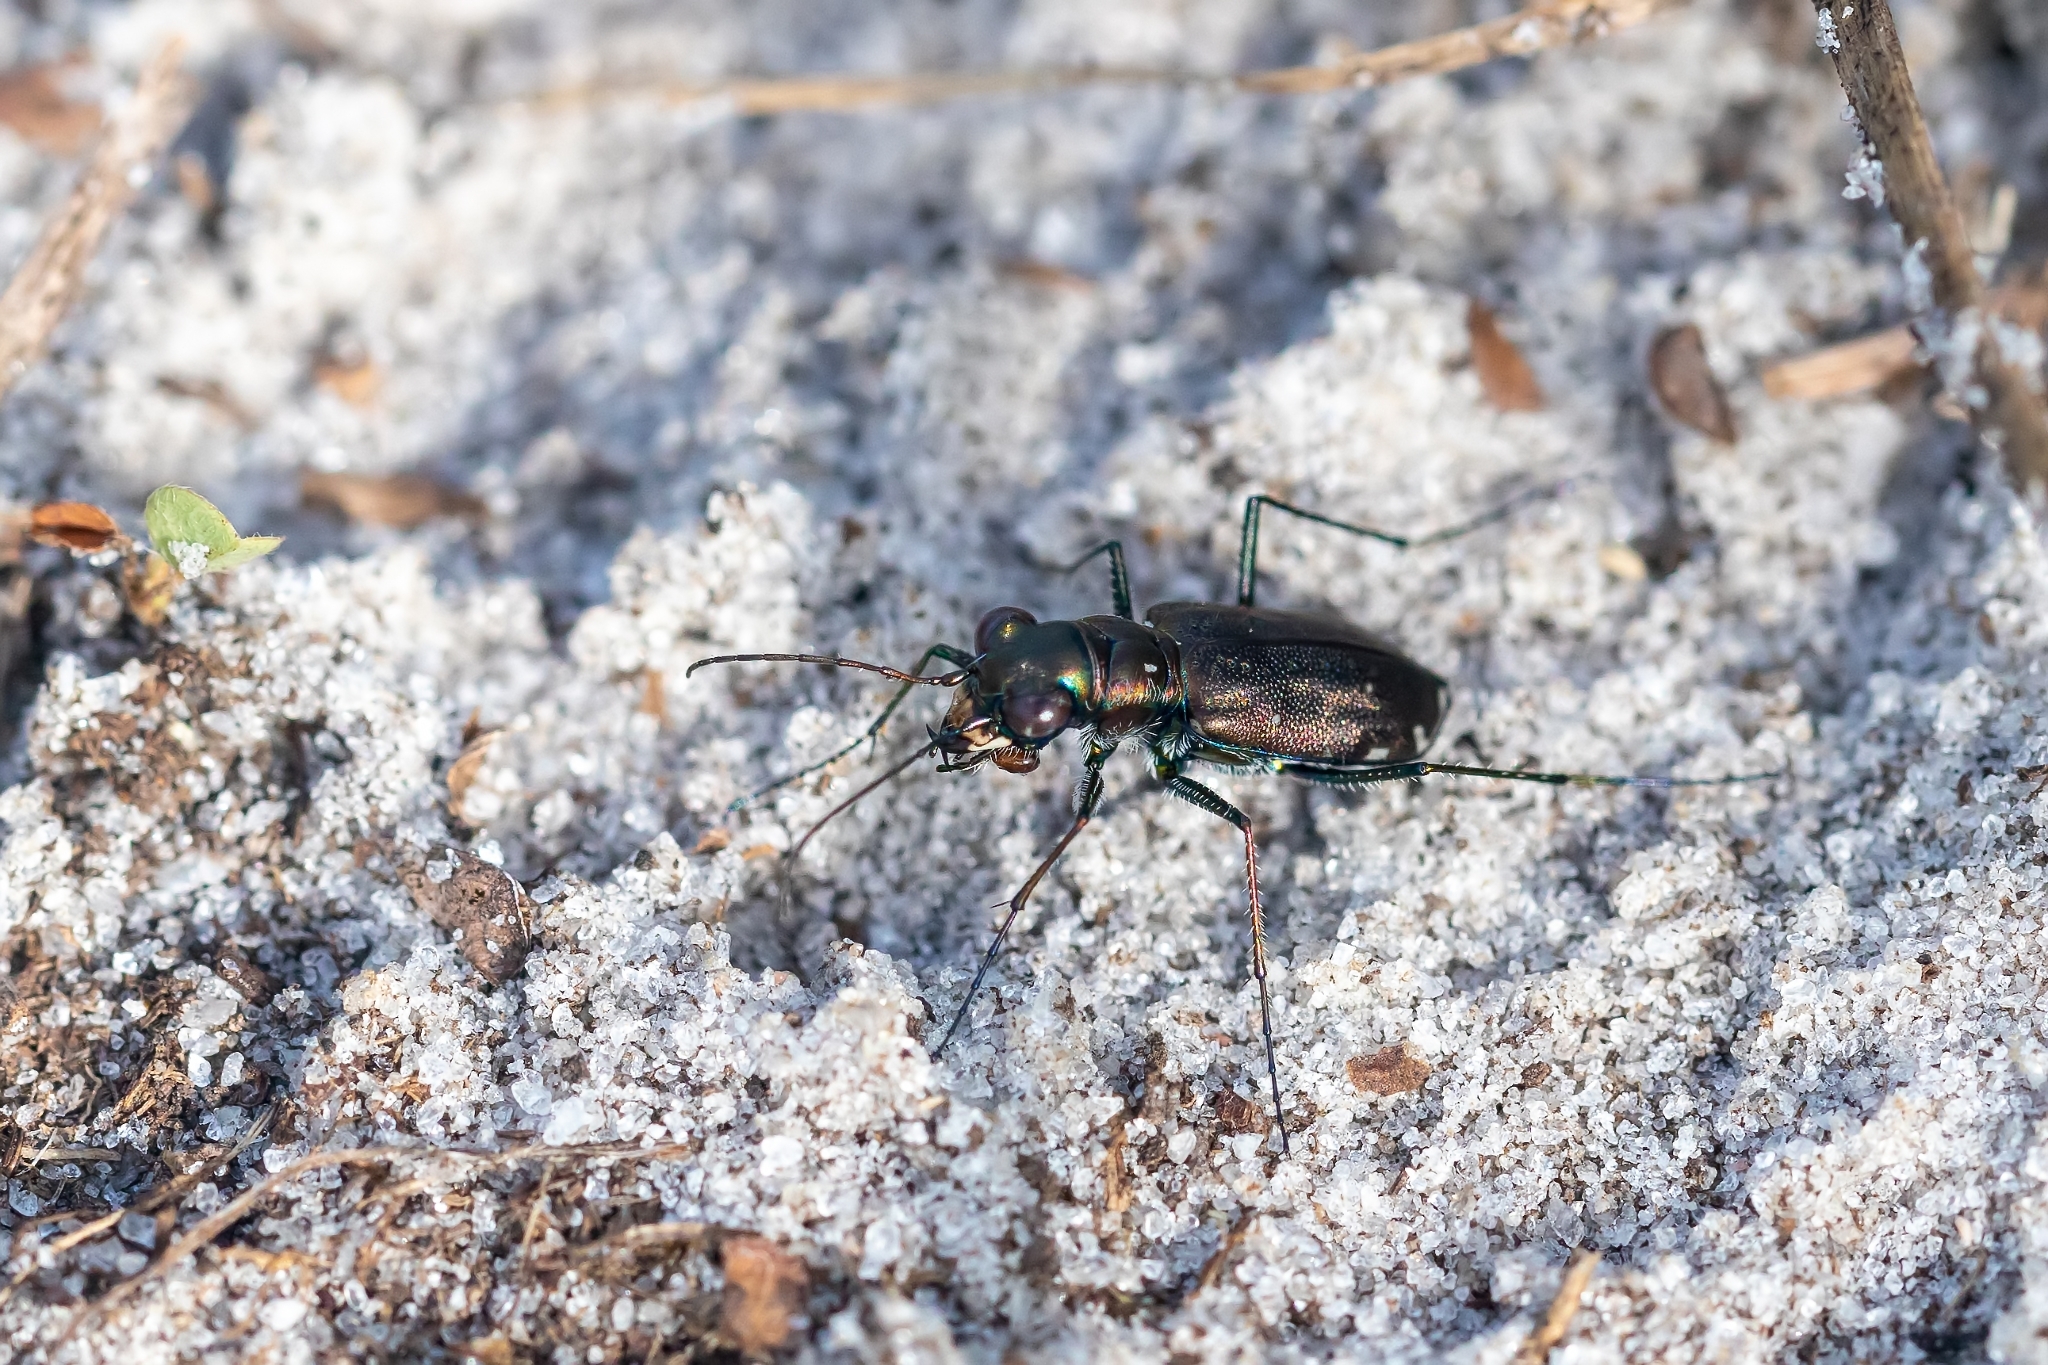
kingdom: Animalia
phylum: Arthropoda
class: Insecta
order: Coleoptera
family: Carabidae
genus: Cicindela
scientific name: Cicindela punctulata
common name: Punctured tiger beetle
